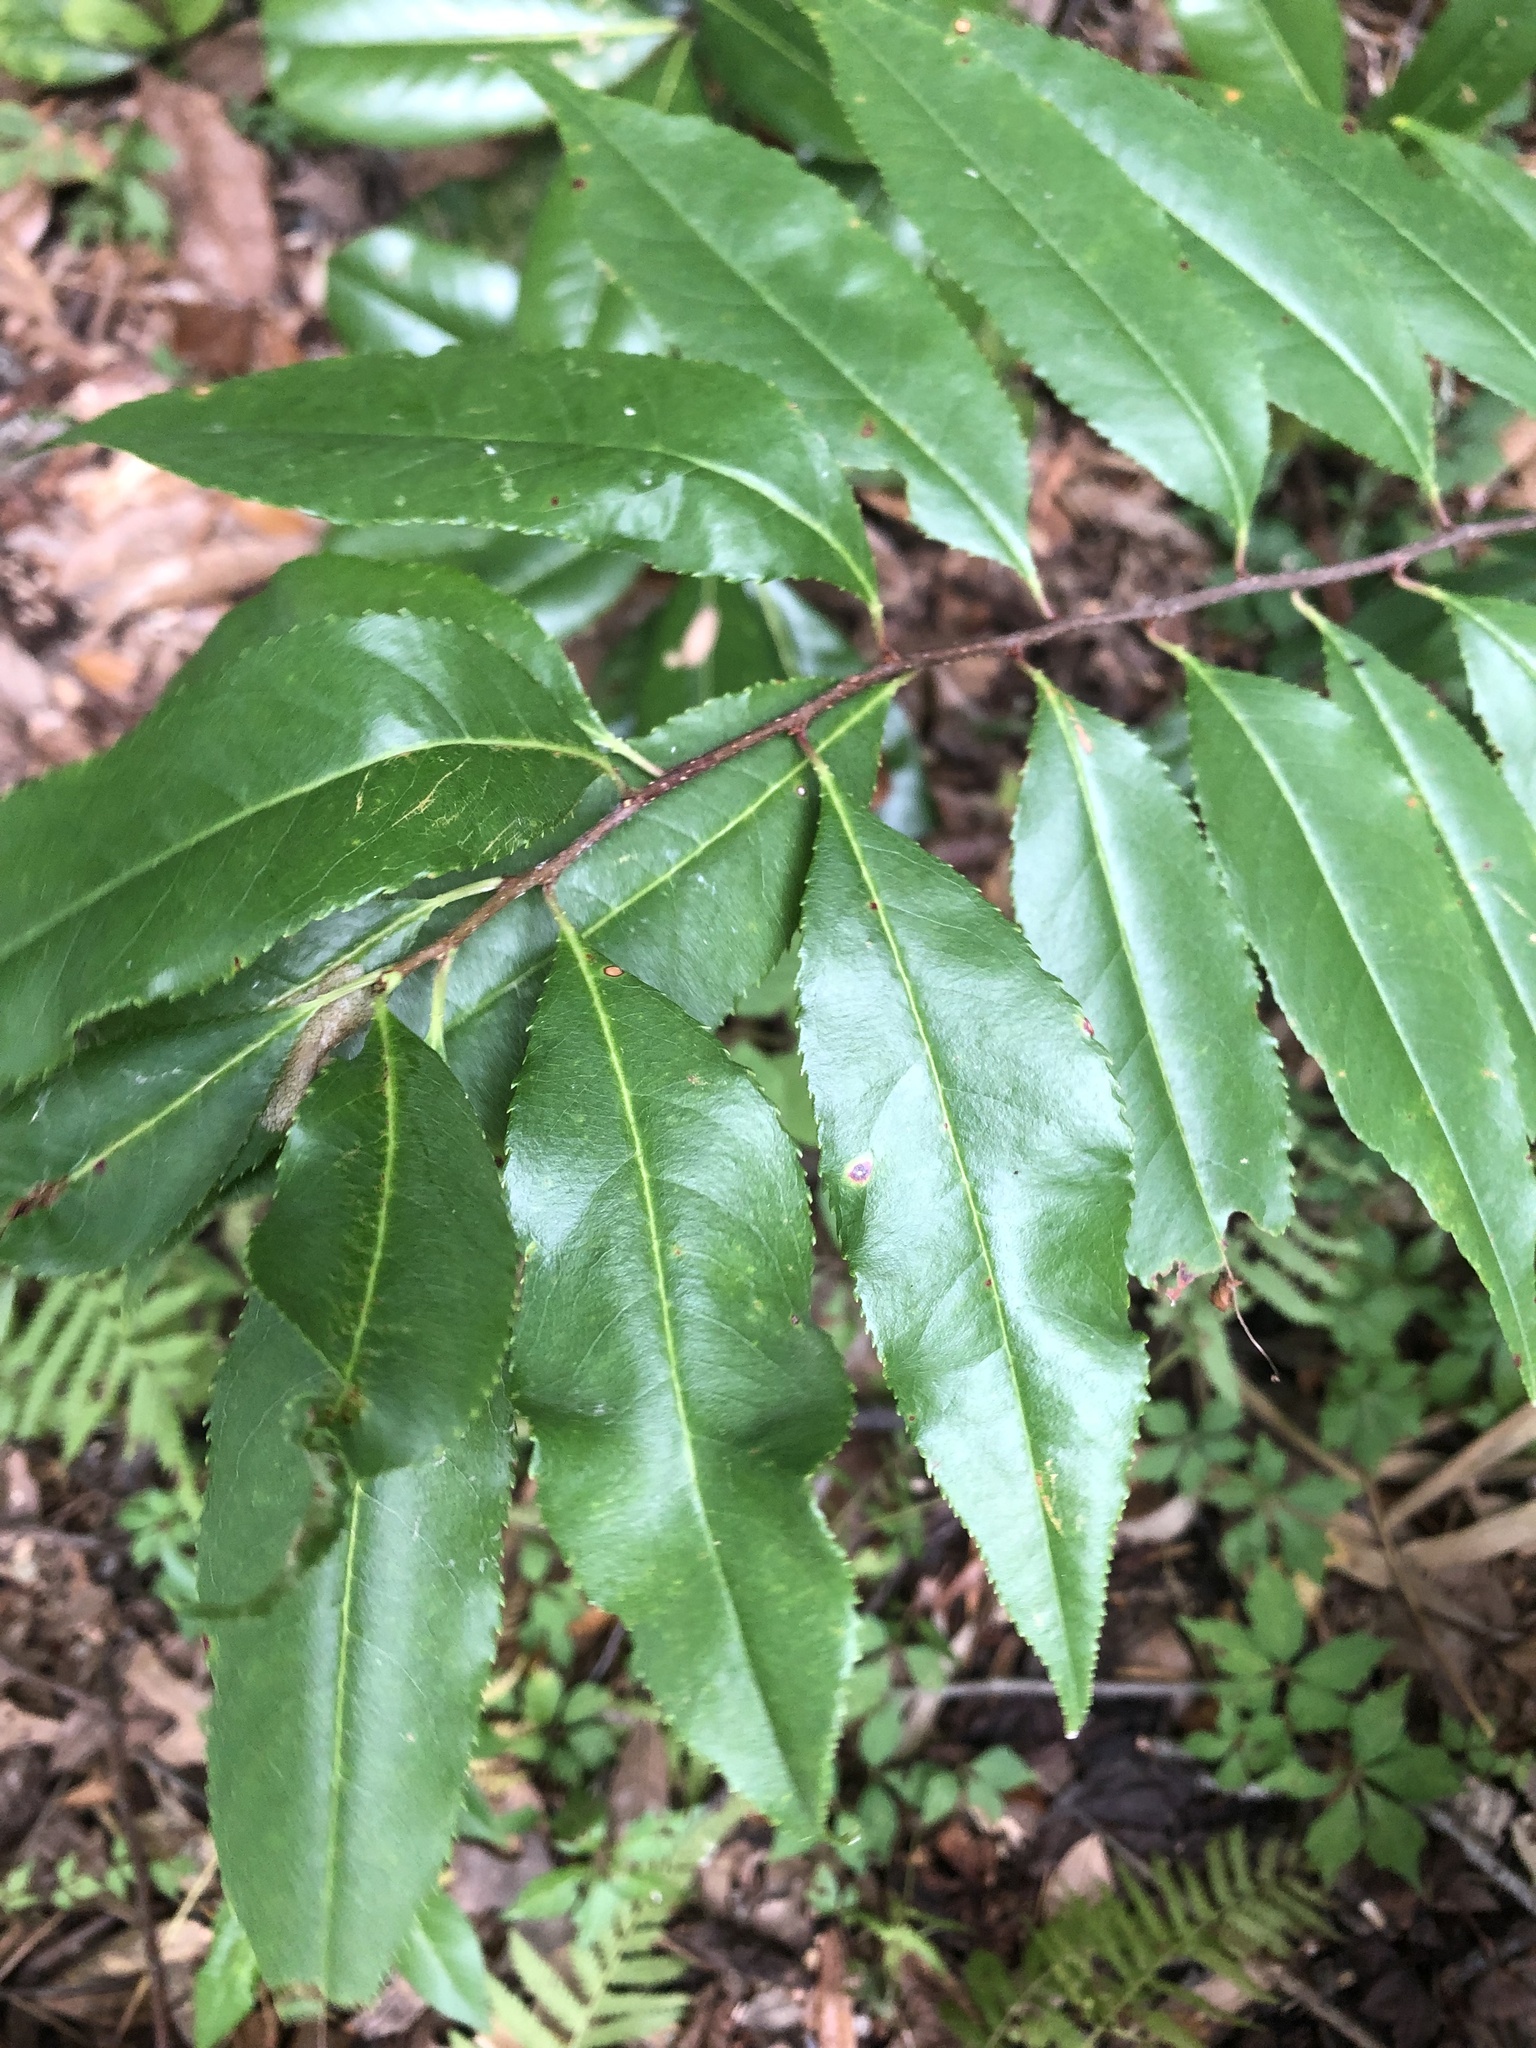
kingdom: Plantae
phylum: Tracheophyta
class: Magnoliopsida
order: Rosales
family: Rosaceae
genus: Prunus
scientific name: Prunus serotina
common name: Black cherry
